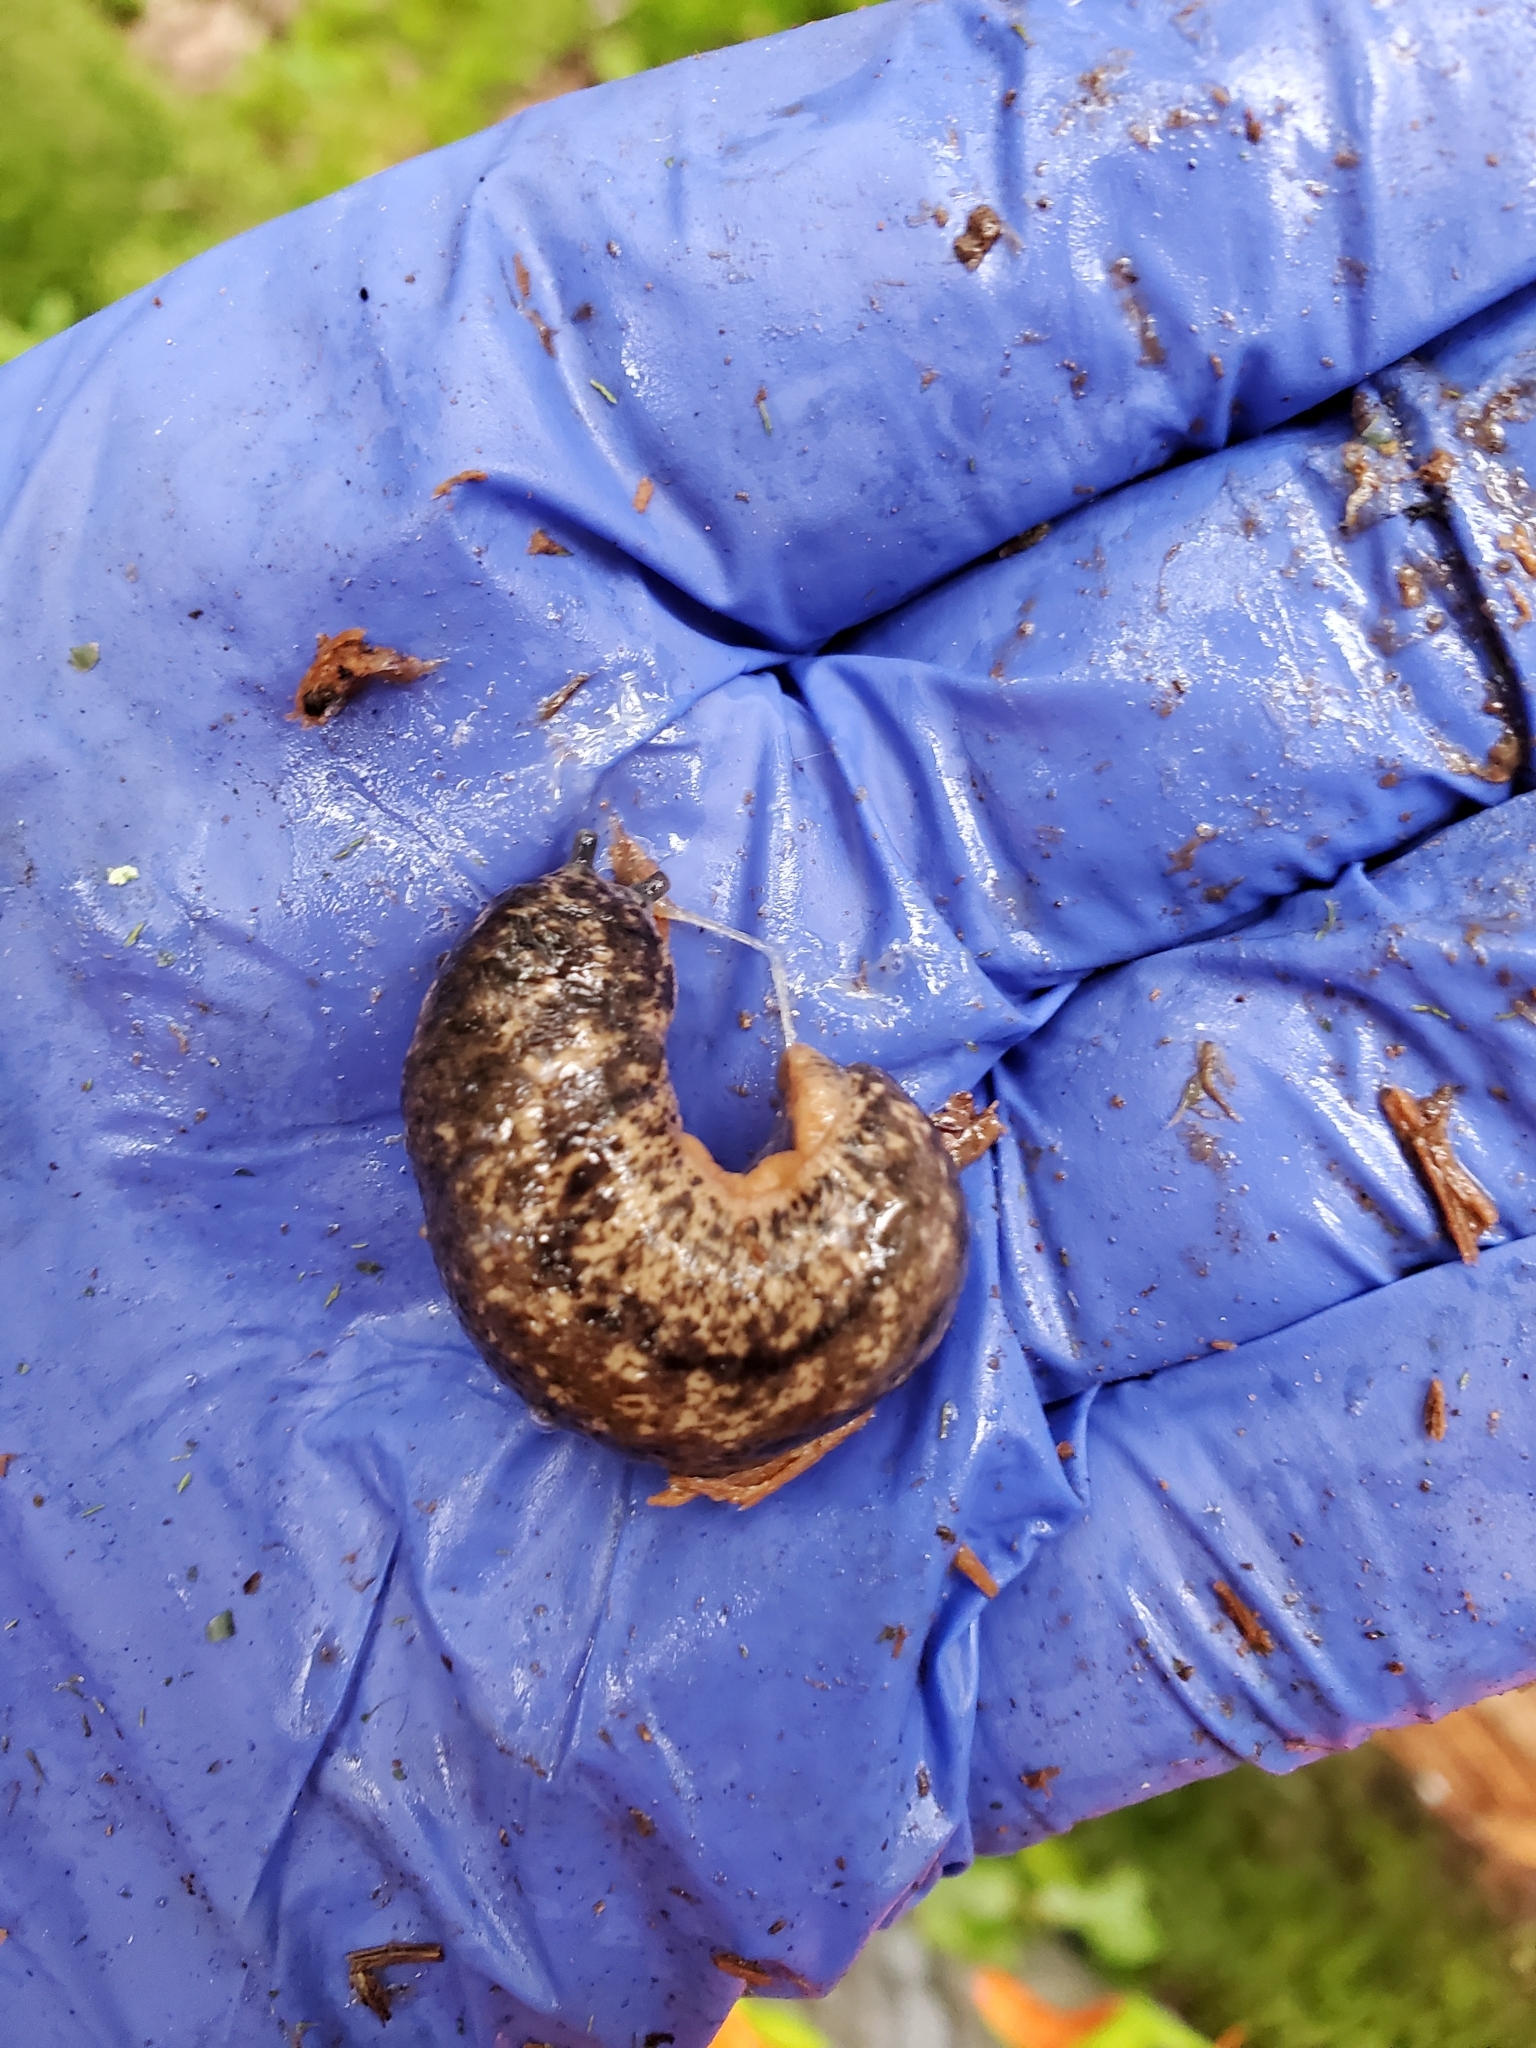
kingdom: Animalia
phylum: Mollusca
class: Gastropoda
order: Stylommatophora
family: Philomycidae
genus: Philomycus
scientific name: Philomycus flexuolaris
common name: Winding mantleslug
